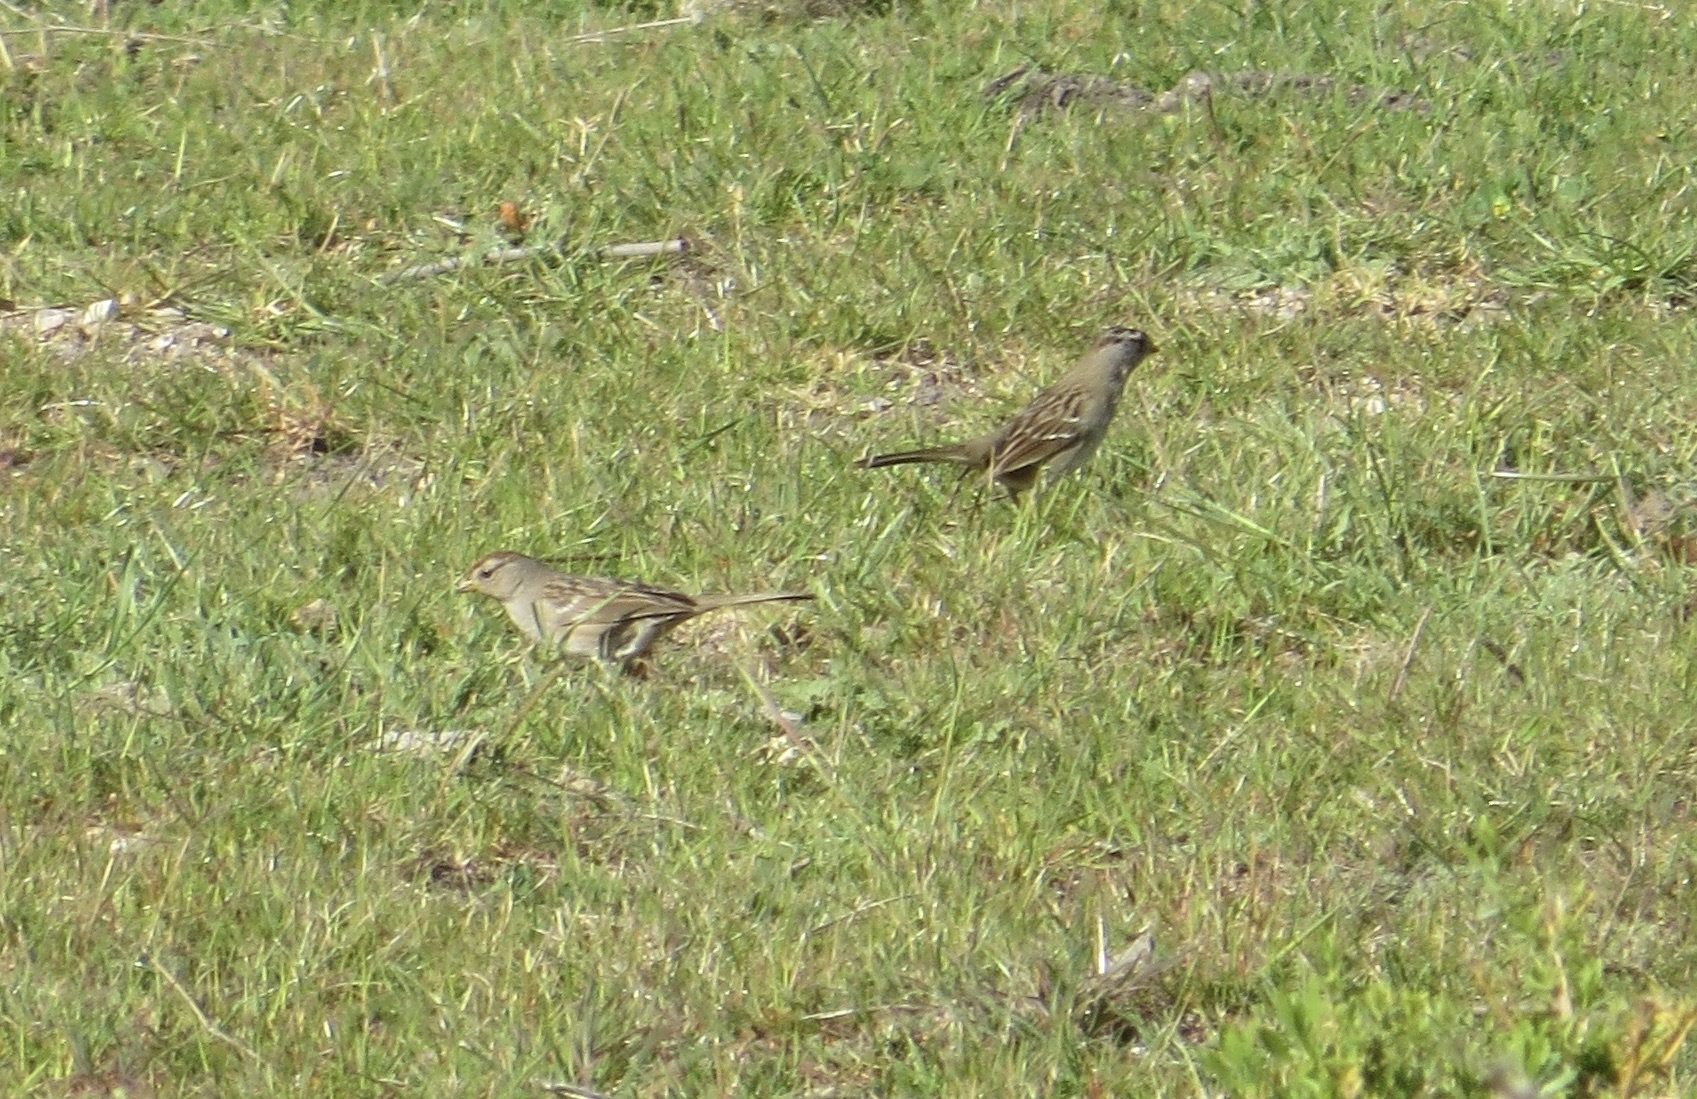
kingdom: Animalia
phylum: Chordata
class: Aves
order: Passeriformes
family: Passerellidae
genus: Zonotrichia
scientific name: Zonotrichia leucophrys
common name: White-crowned sparrow
